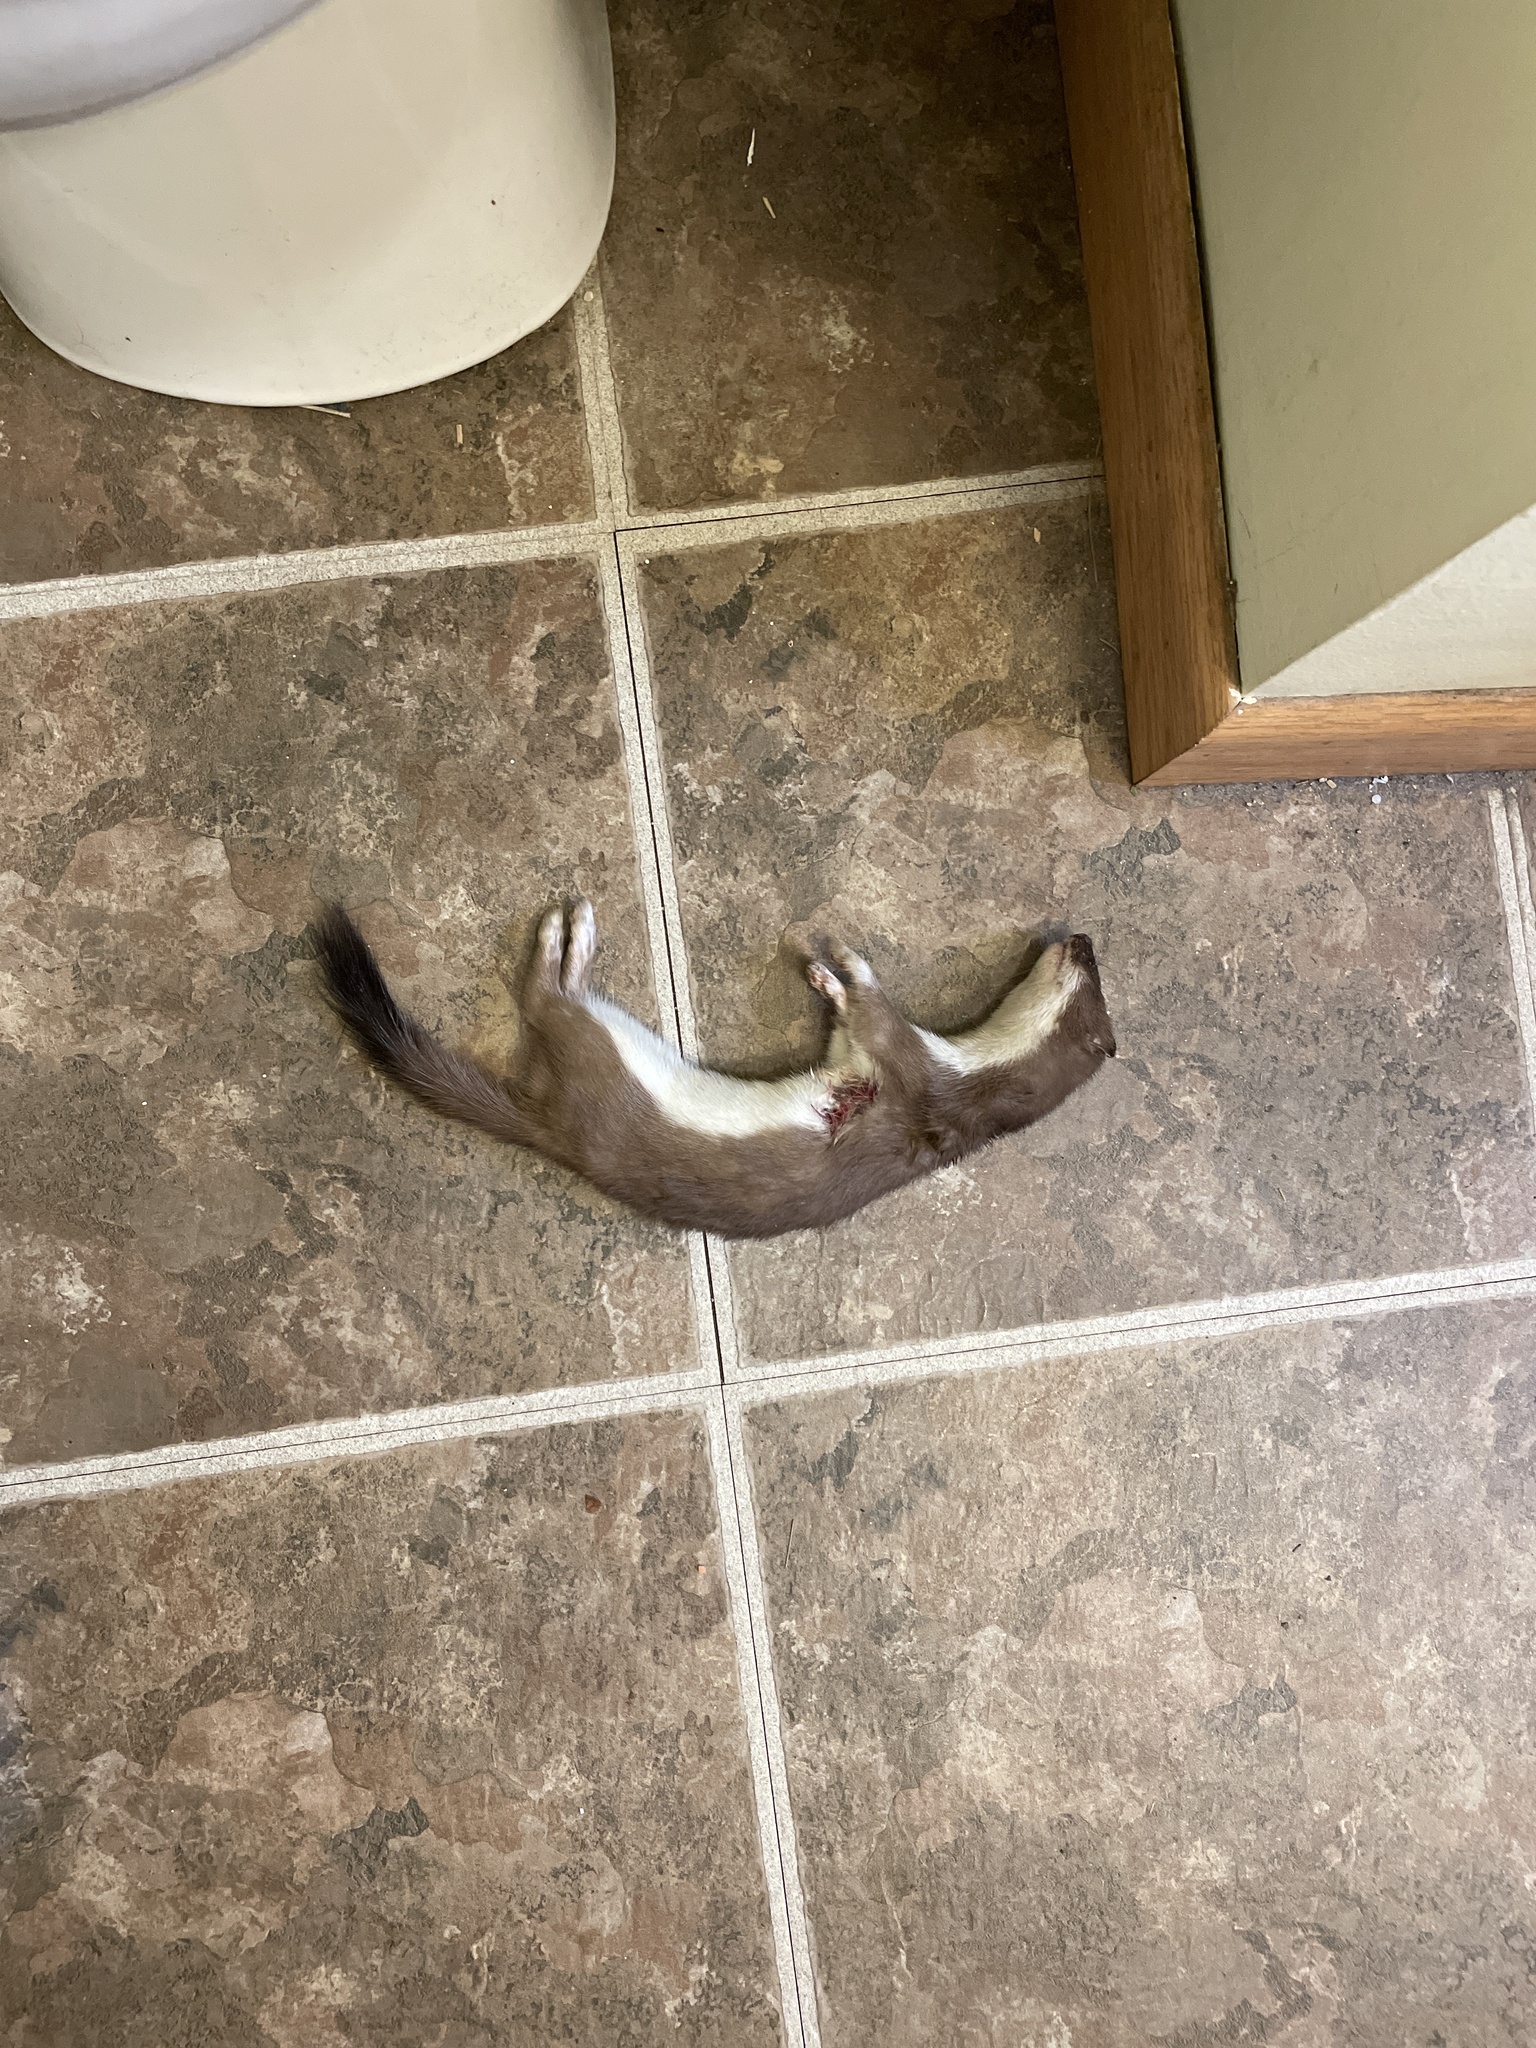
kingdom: Animalia
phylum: Chordata
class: Mammalia
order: Carnivora
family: Mustelidae
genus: Mustela
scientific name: Mustela erminea
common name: Stoat
